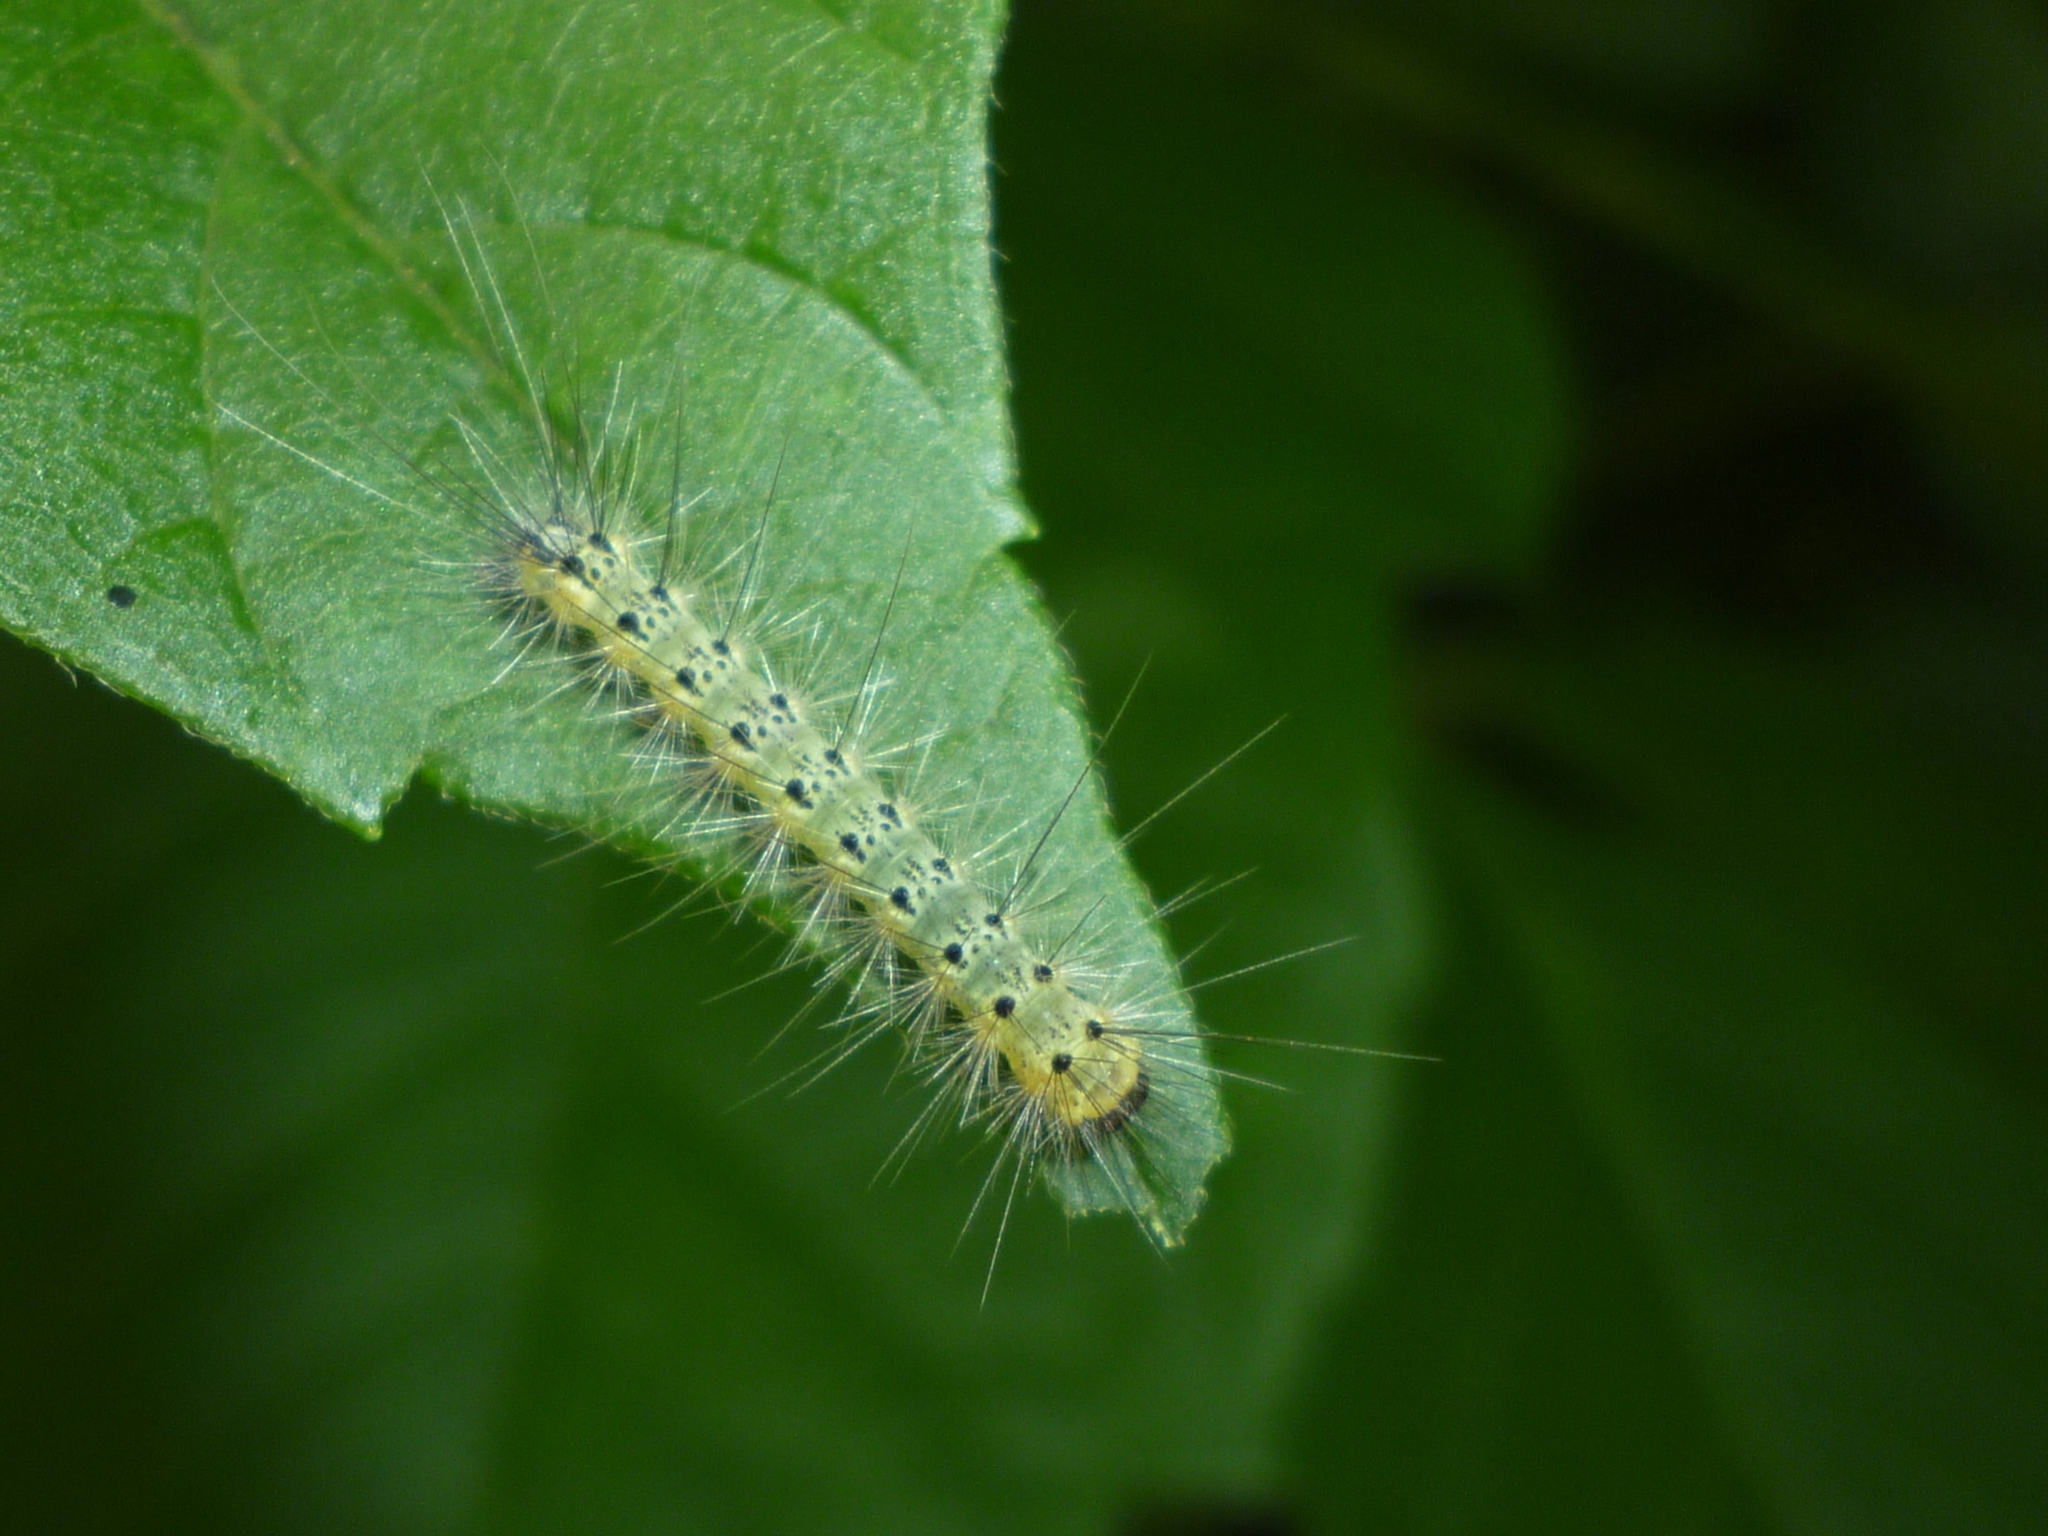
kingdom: Animalia
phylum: Arthropoda
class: Insecta
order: Lepidoptera
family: Erebidae
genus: Hyphantria
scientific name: Hyphantria cunea
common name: American white moth
